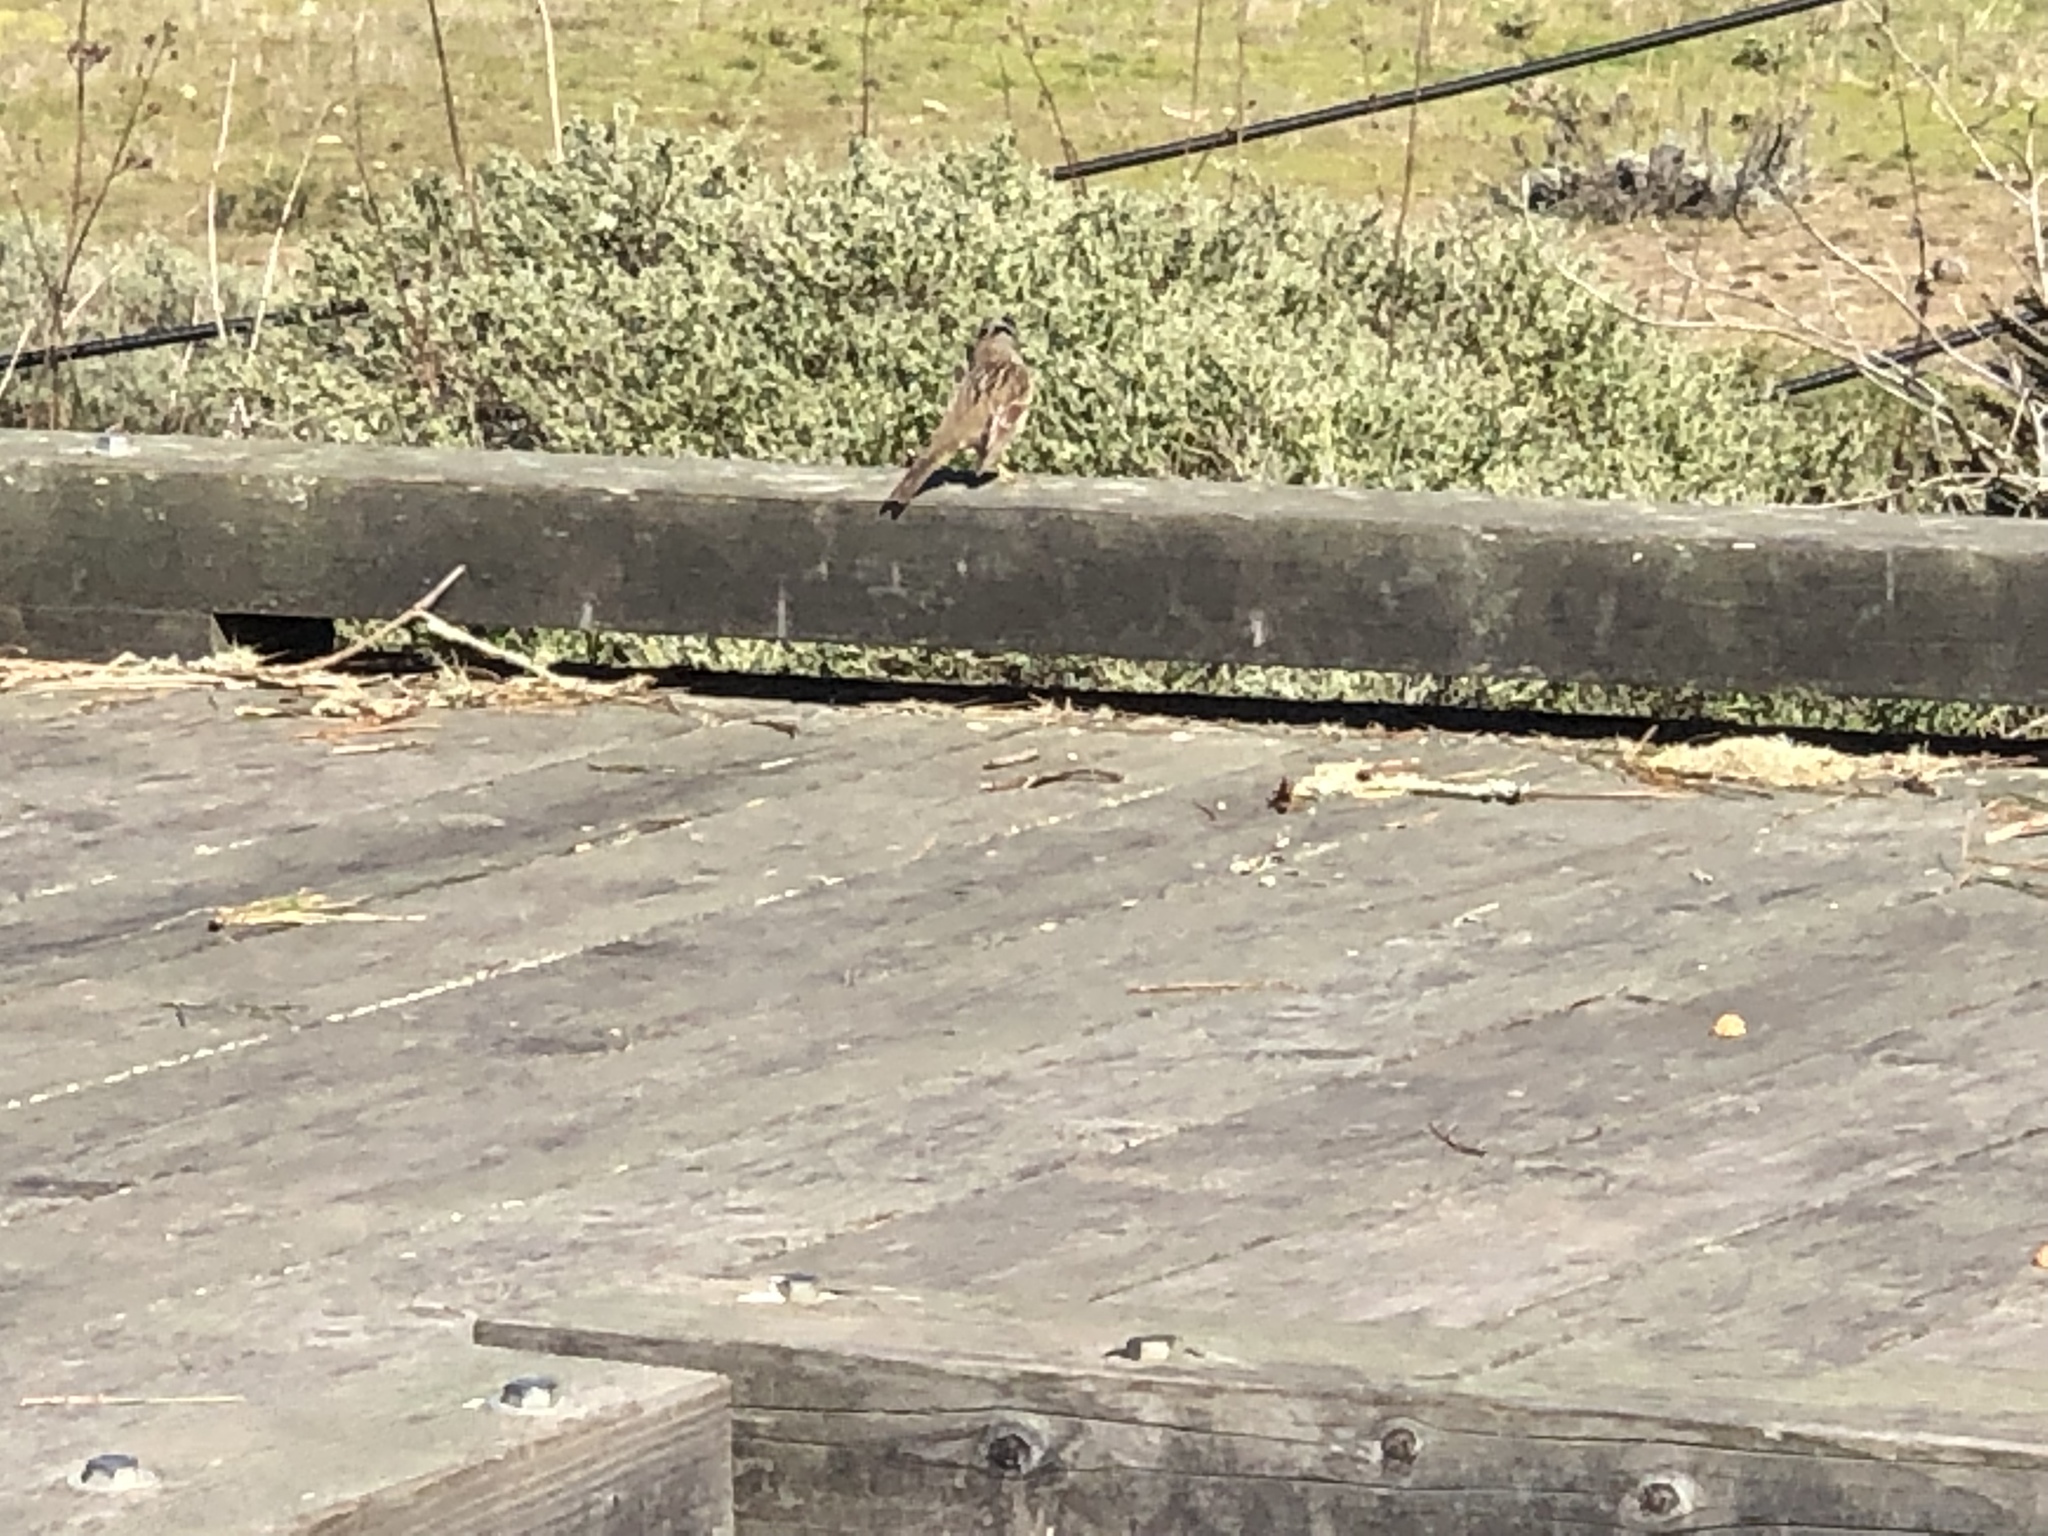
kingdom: Animalia
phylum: Chordata
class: Aves
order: Passeriformes
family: Passerellidae
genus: Zonotrichia
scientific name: Zonotrichia leucophrys
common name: White-crowned sparrow
